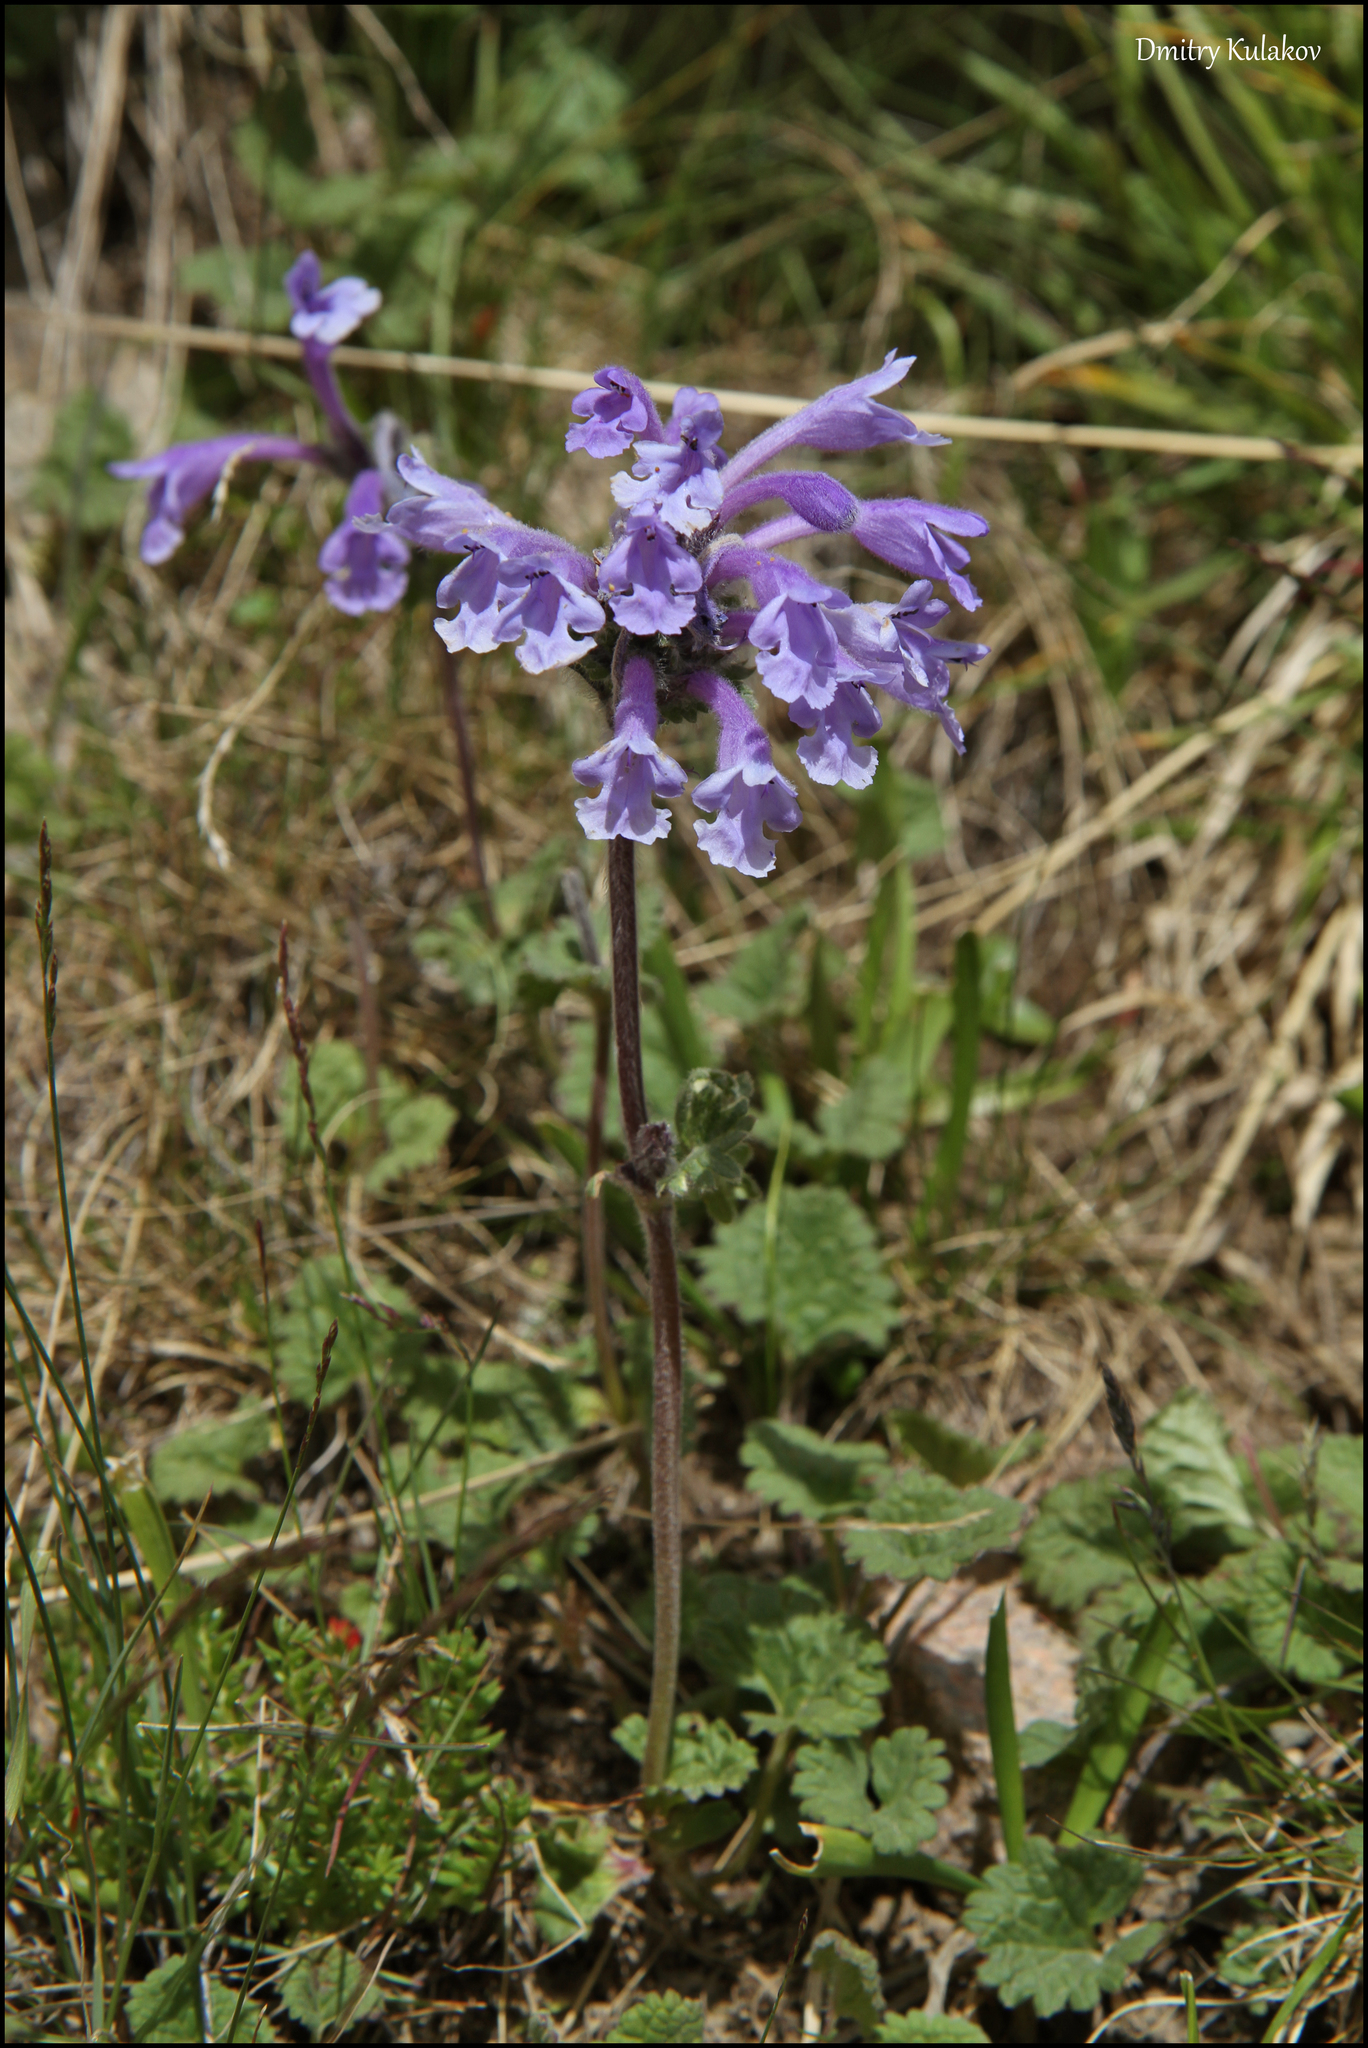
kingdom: Plantae
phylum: Tracheophyta
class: Magnoliopsida
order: Lamiales
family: Lamiaceae
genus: Dracocephalum
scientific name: Dracocephalum imberbe
